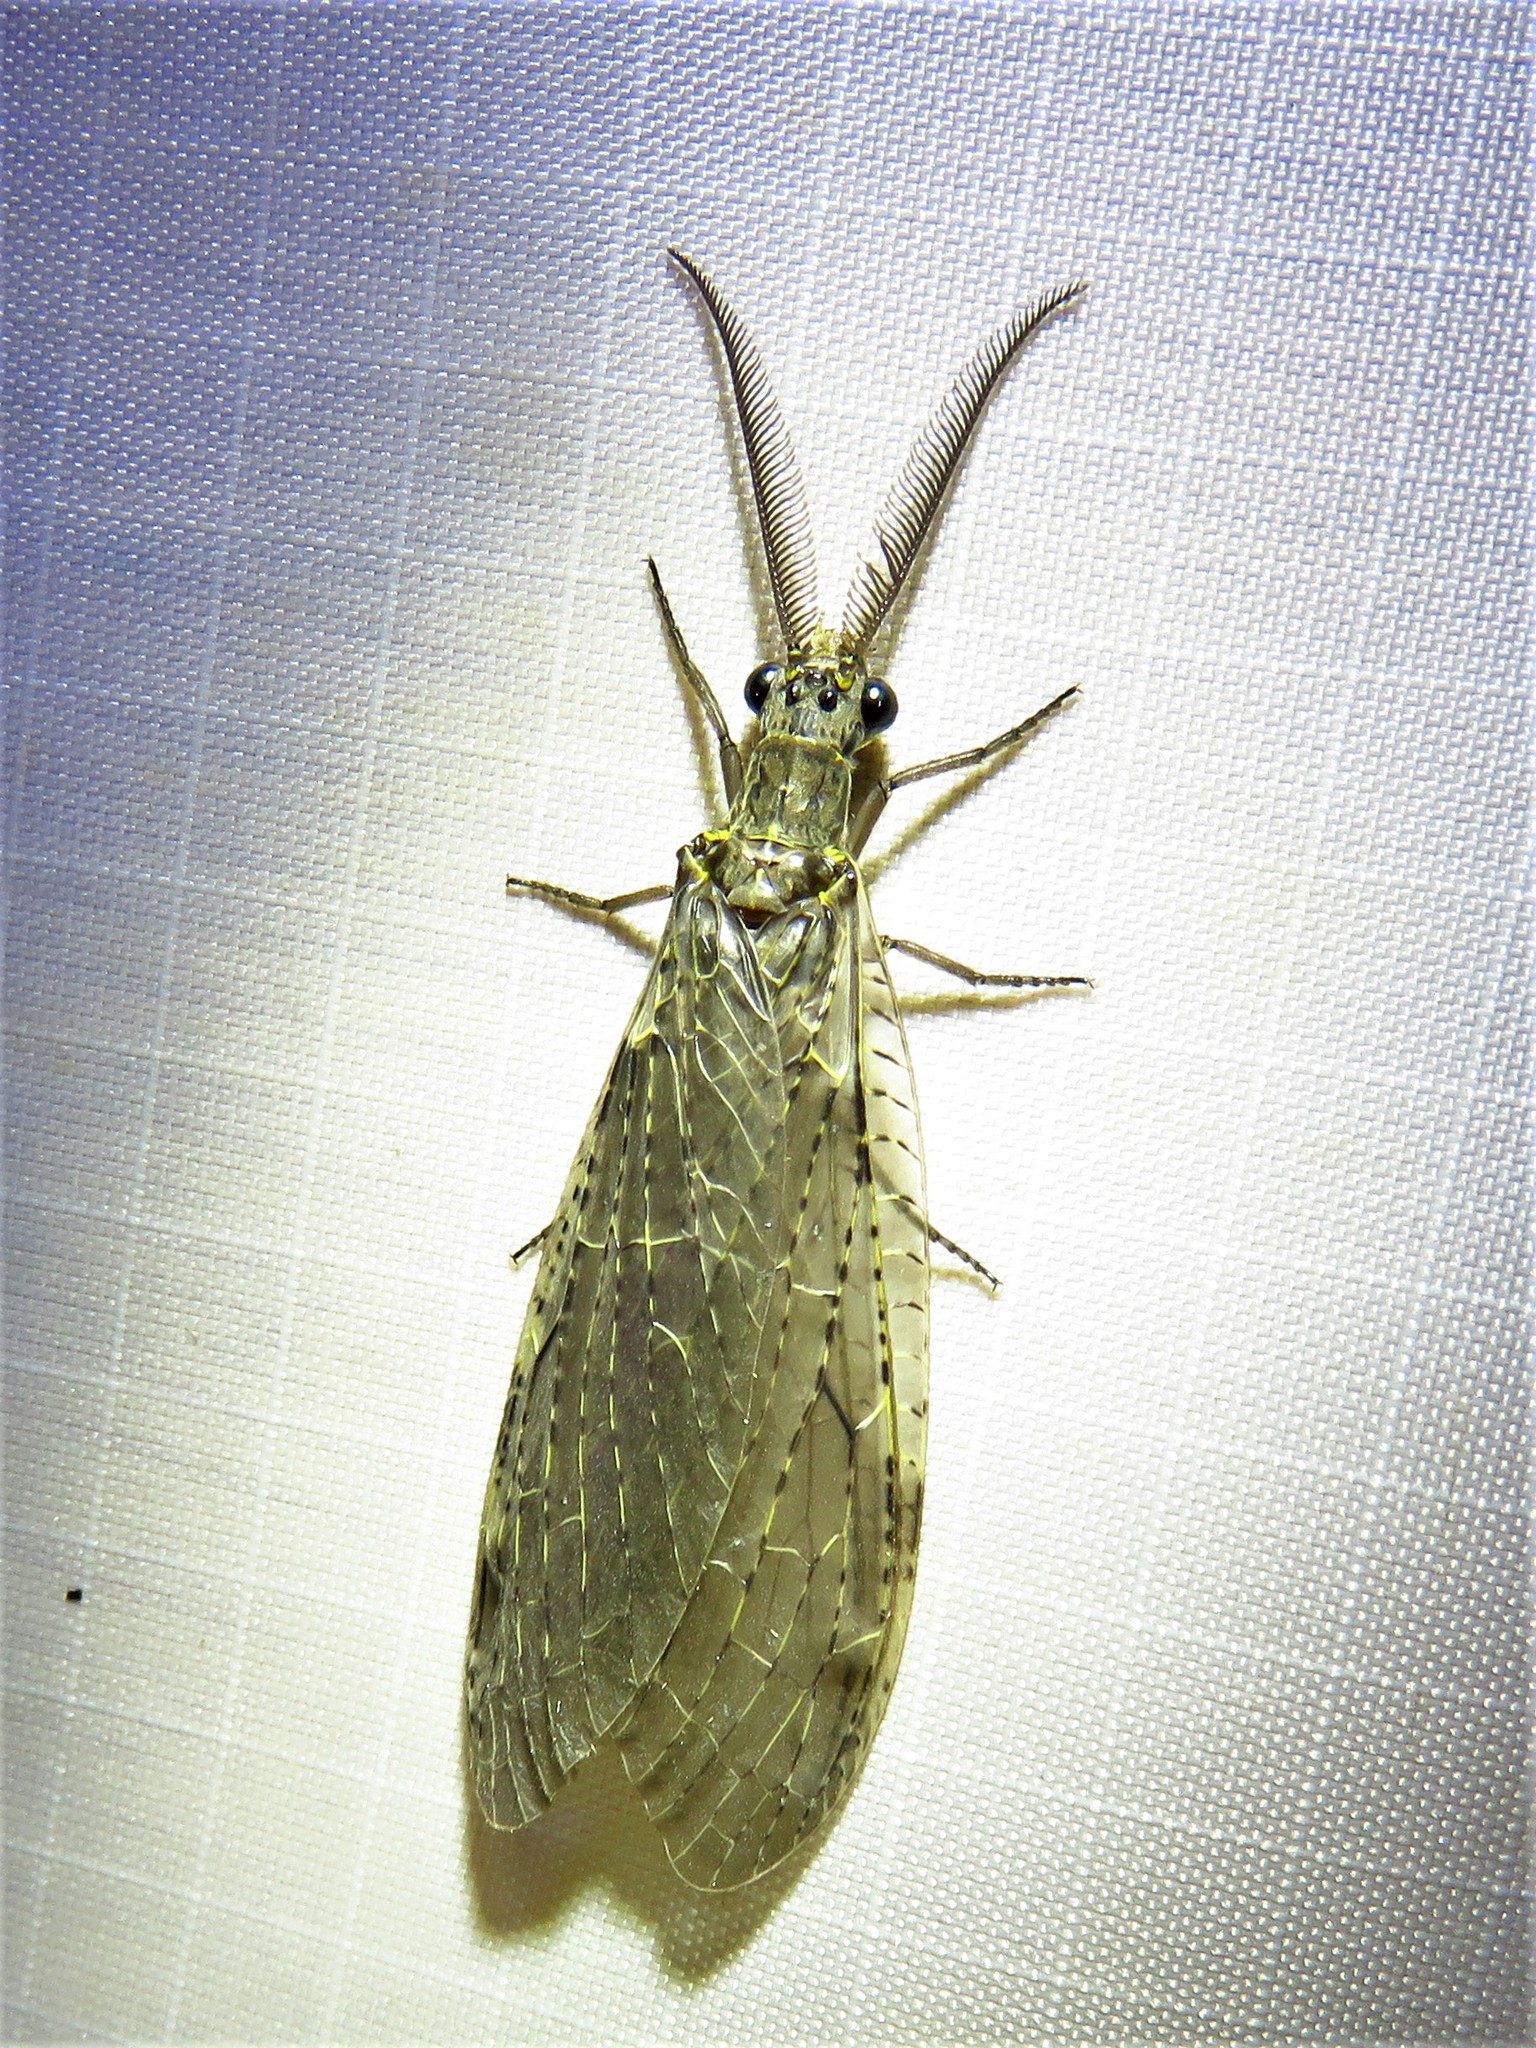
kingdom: Animalia
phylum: Arthropoda
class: Insecta
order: Megaloptera
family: Corydalidae
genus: Chauliodes
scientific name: Chauliodes rastricornis
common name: Spring fishfly
